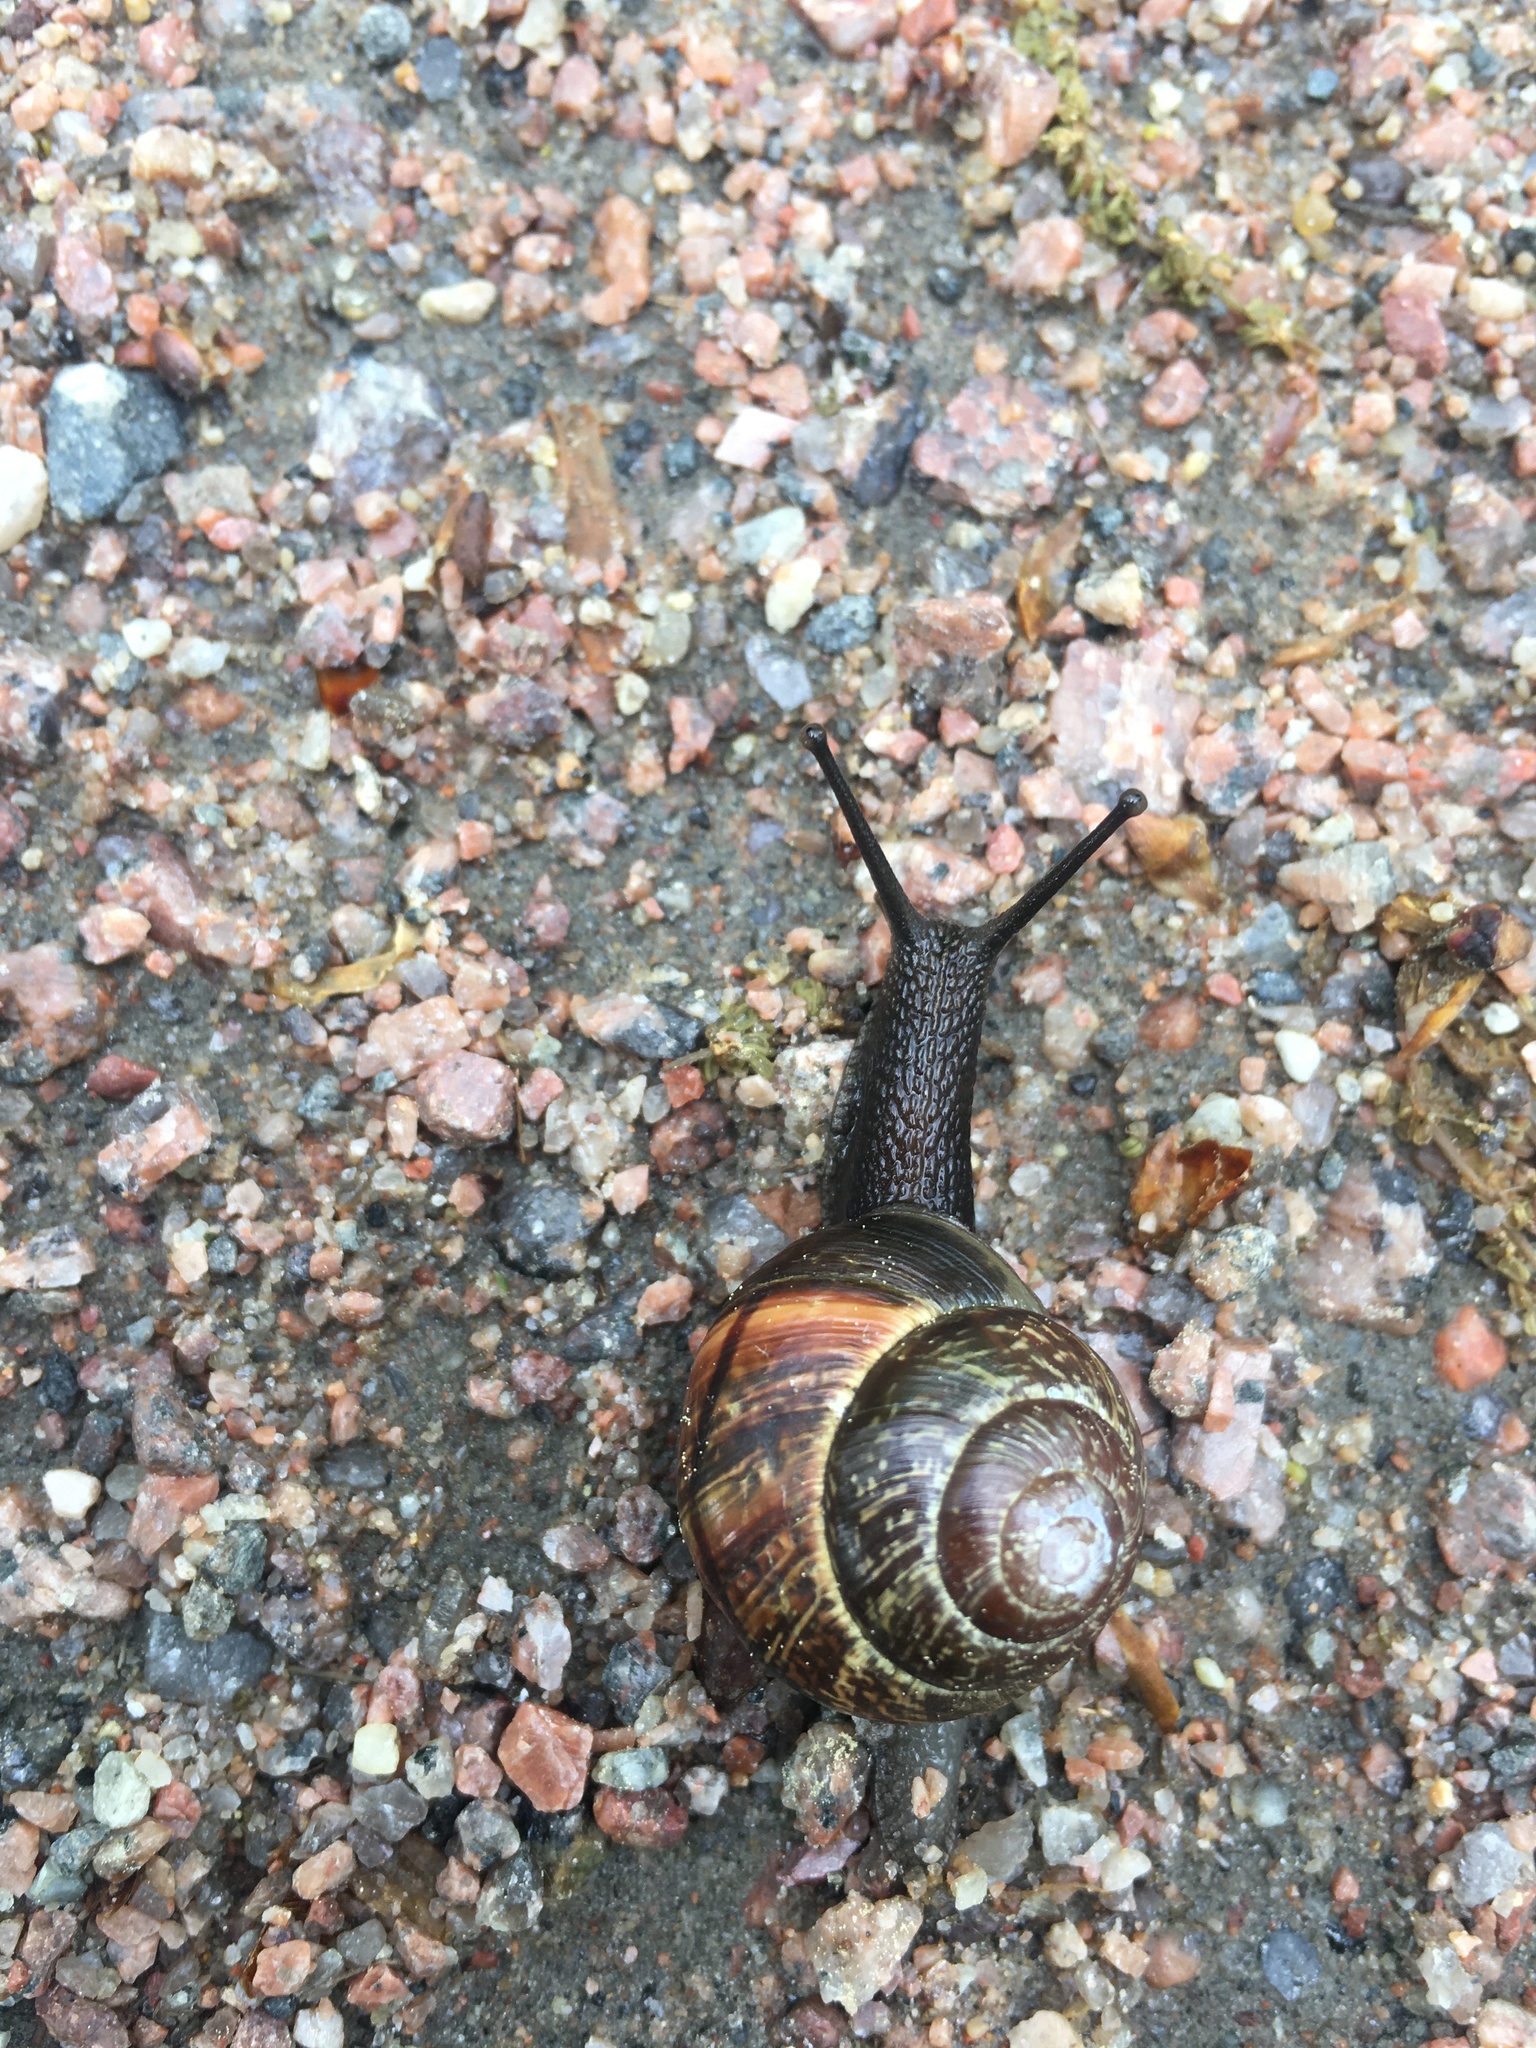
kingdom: Animalia
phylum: Mollusca
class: Gastropoda
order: Stylommatophora
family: Helicidae
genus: Arianta
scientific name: Arianta arbustorum
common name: Copse snail
